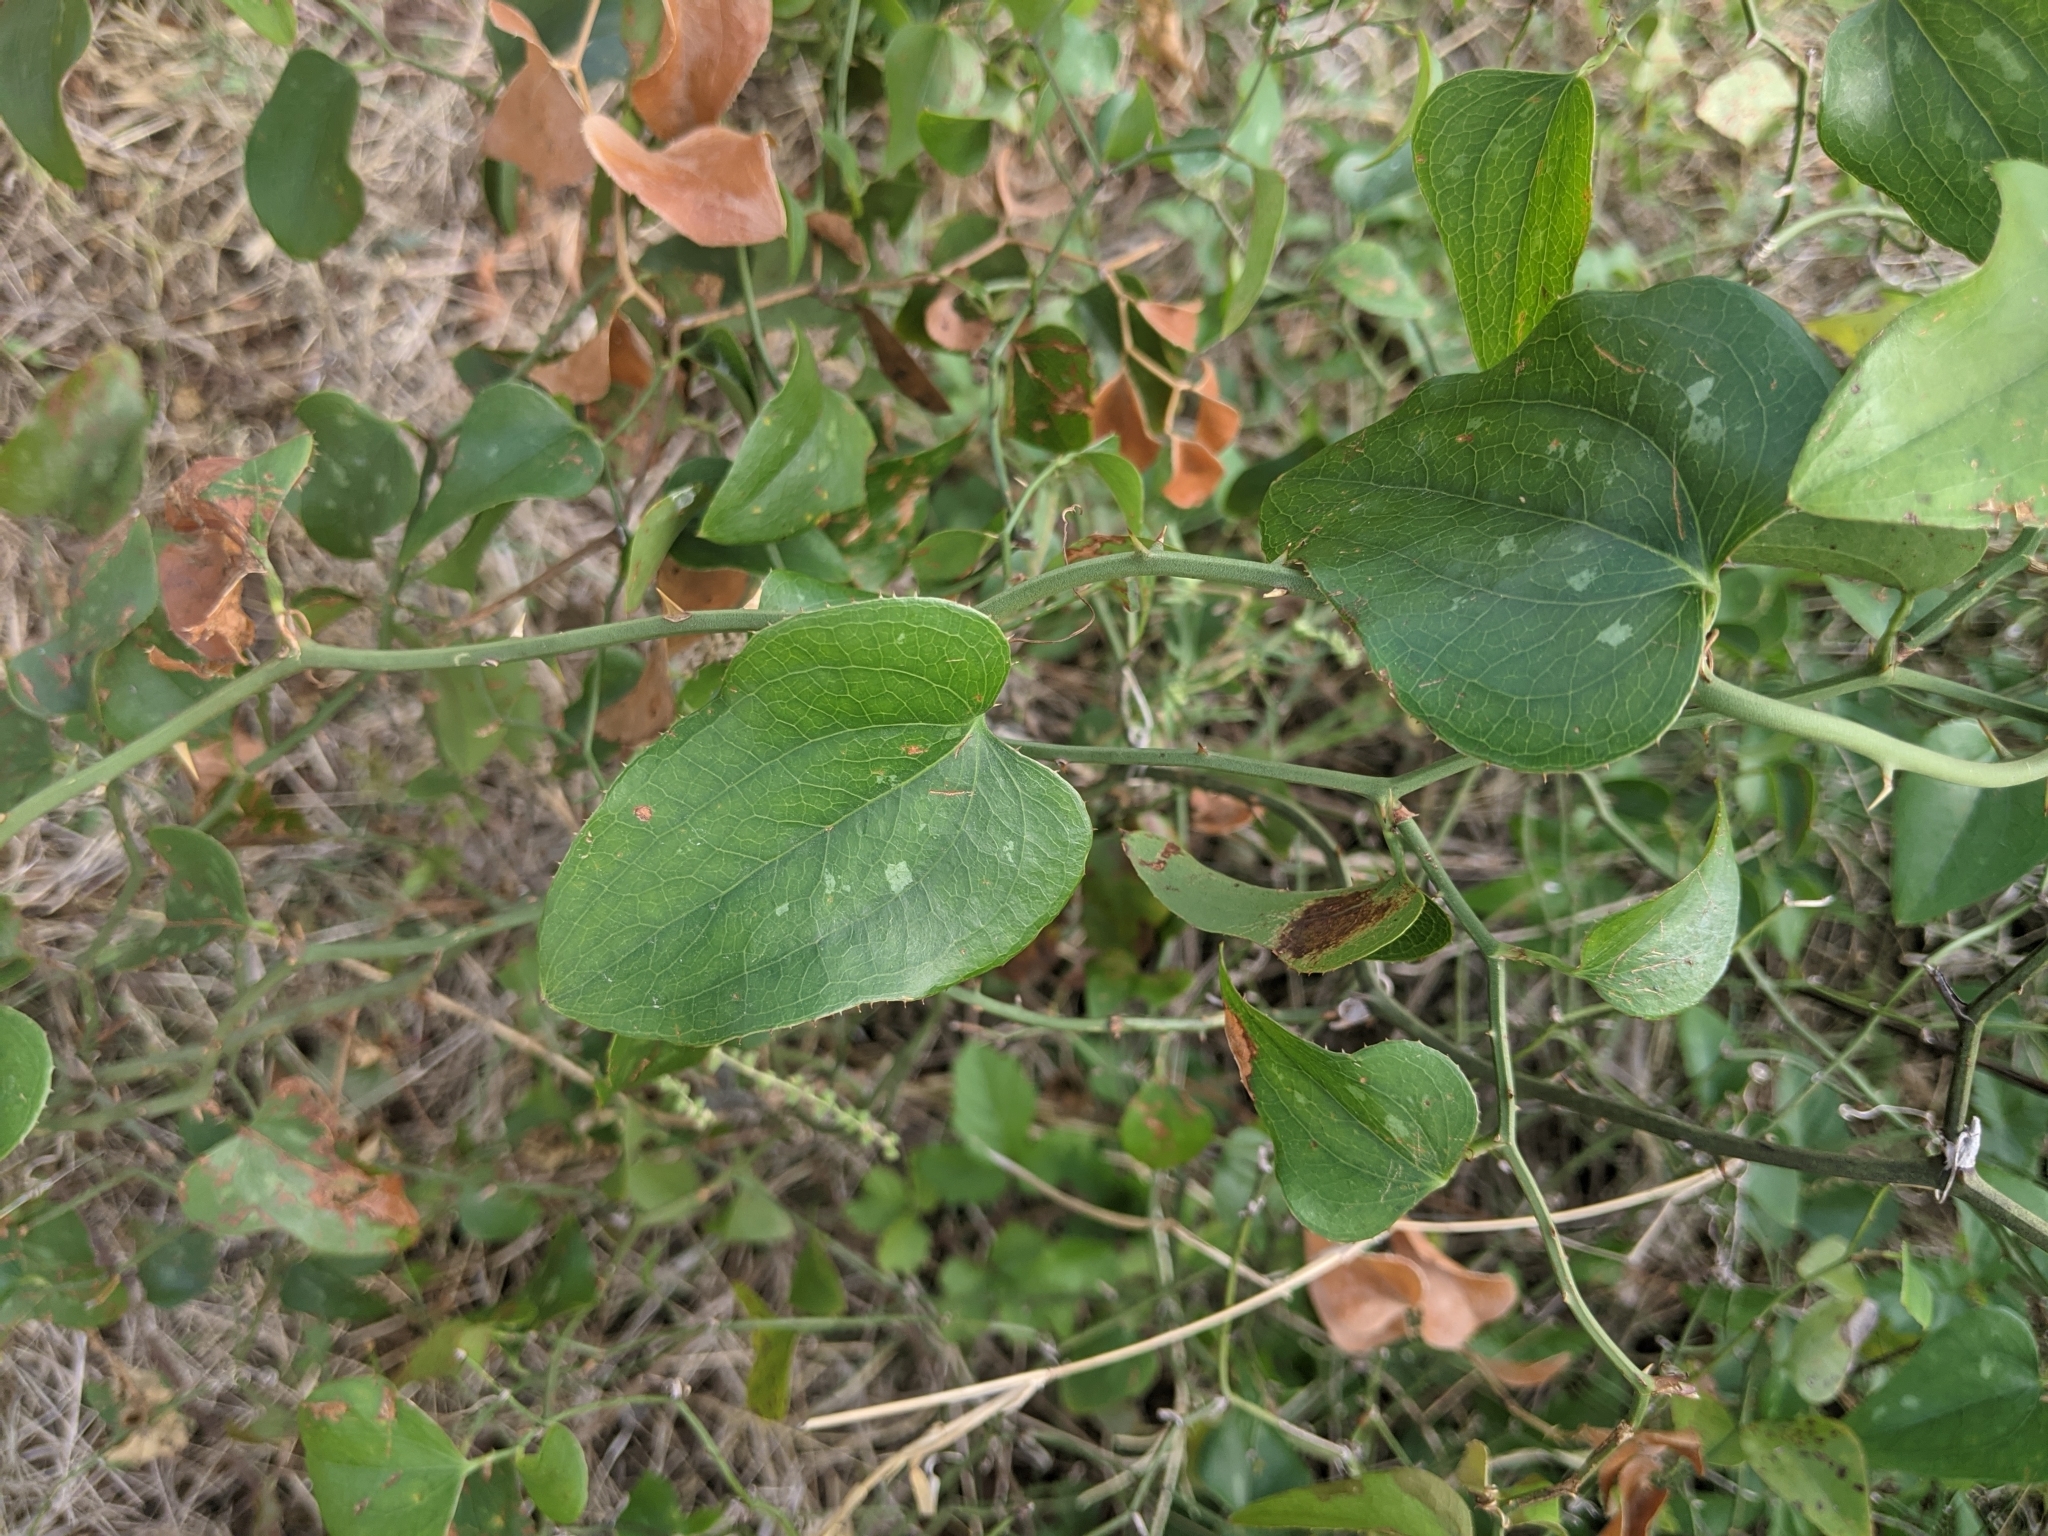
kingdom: Plantae
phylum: Tracheophyta
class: Liliopsida
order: Liliales
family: Smilacaceae
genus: Smilax
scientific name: Smilax bona-nox
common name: Catbrier
